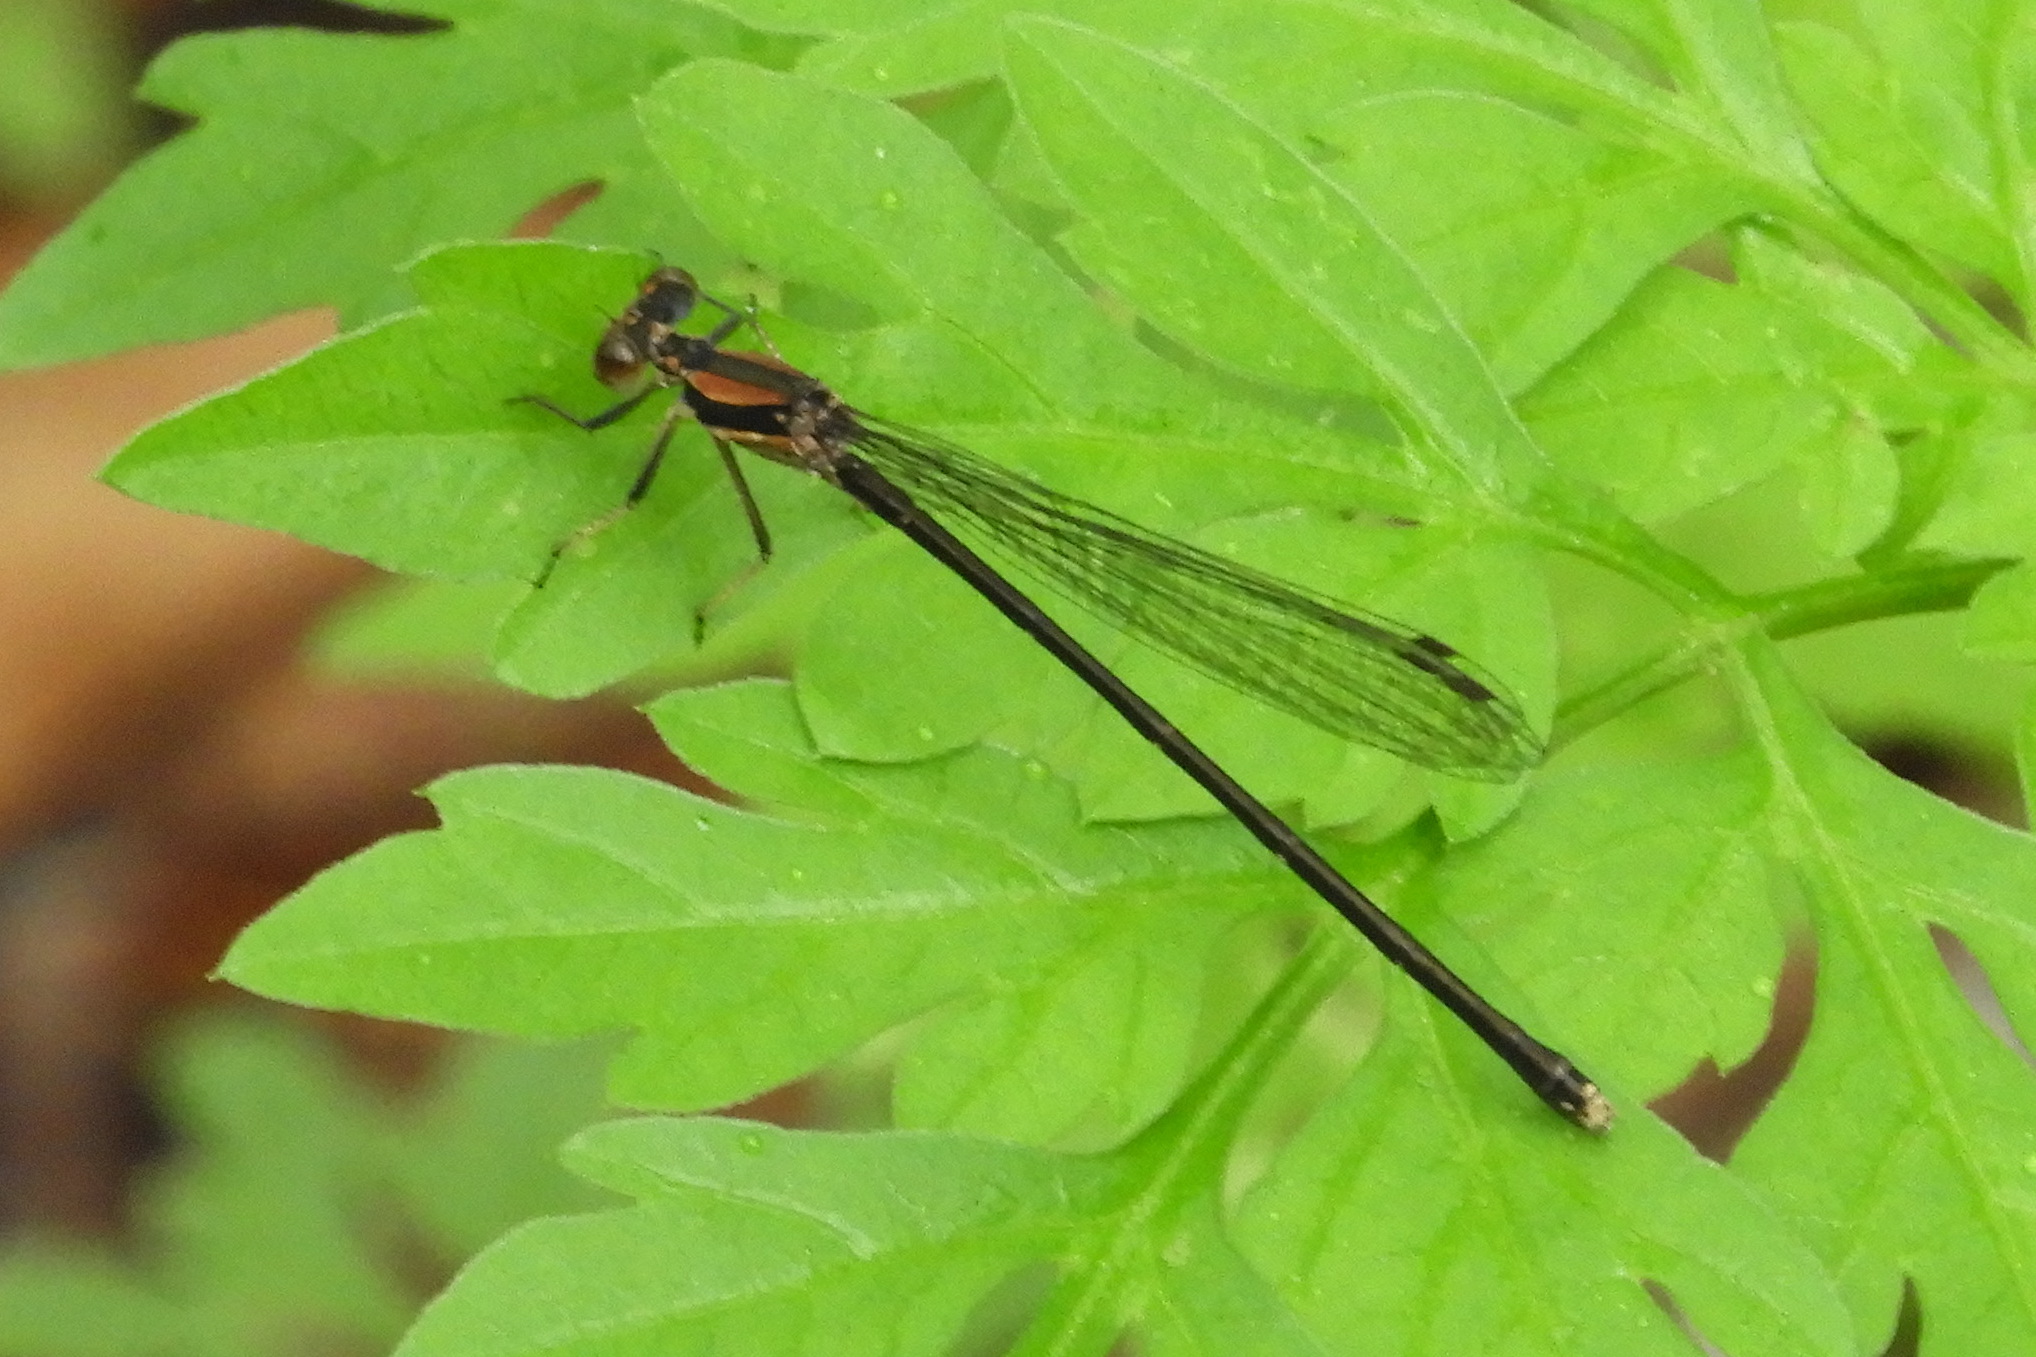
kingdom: Animalia
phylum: Arthropoda
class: Insecta
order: Odonata
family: Coenagrionidae
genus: Argia
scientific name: Argia tibialis
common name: Blue-tipped dancer
